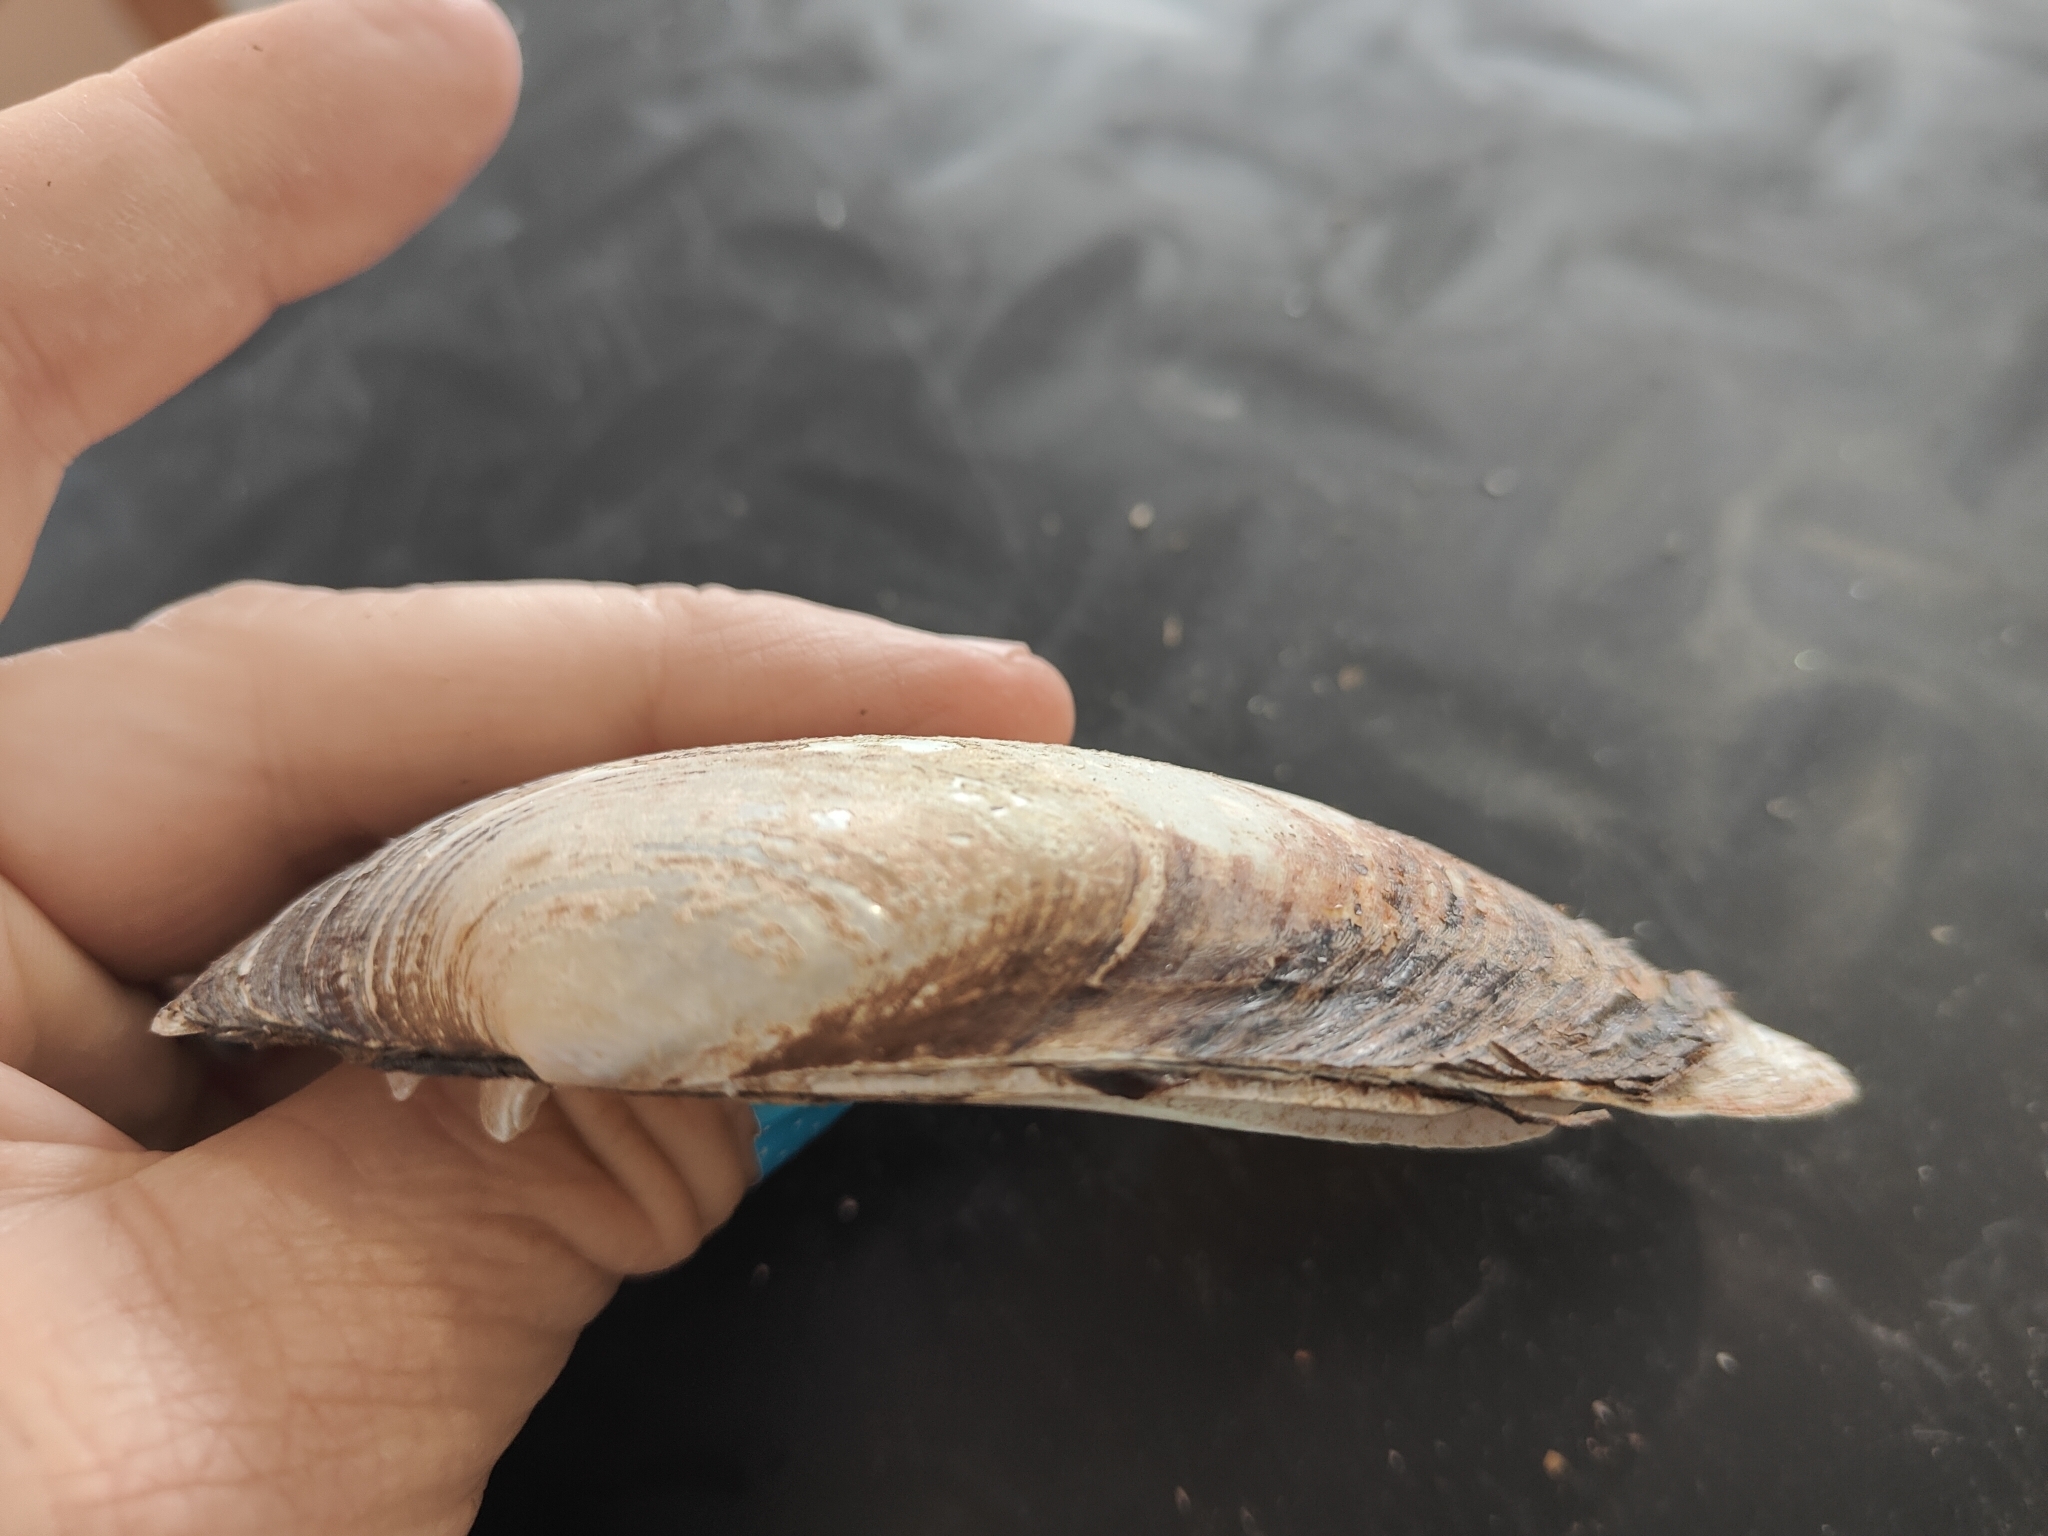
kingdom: Animalia
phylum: Mollusca
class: Bivalvia
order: Unionida
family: Unionidae
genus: Lampsilis
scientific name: Lampsilis siliquoidea
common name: Fatmucket
